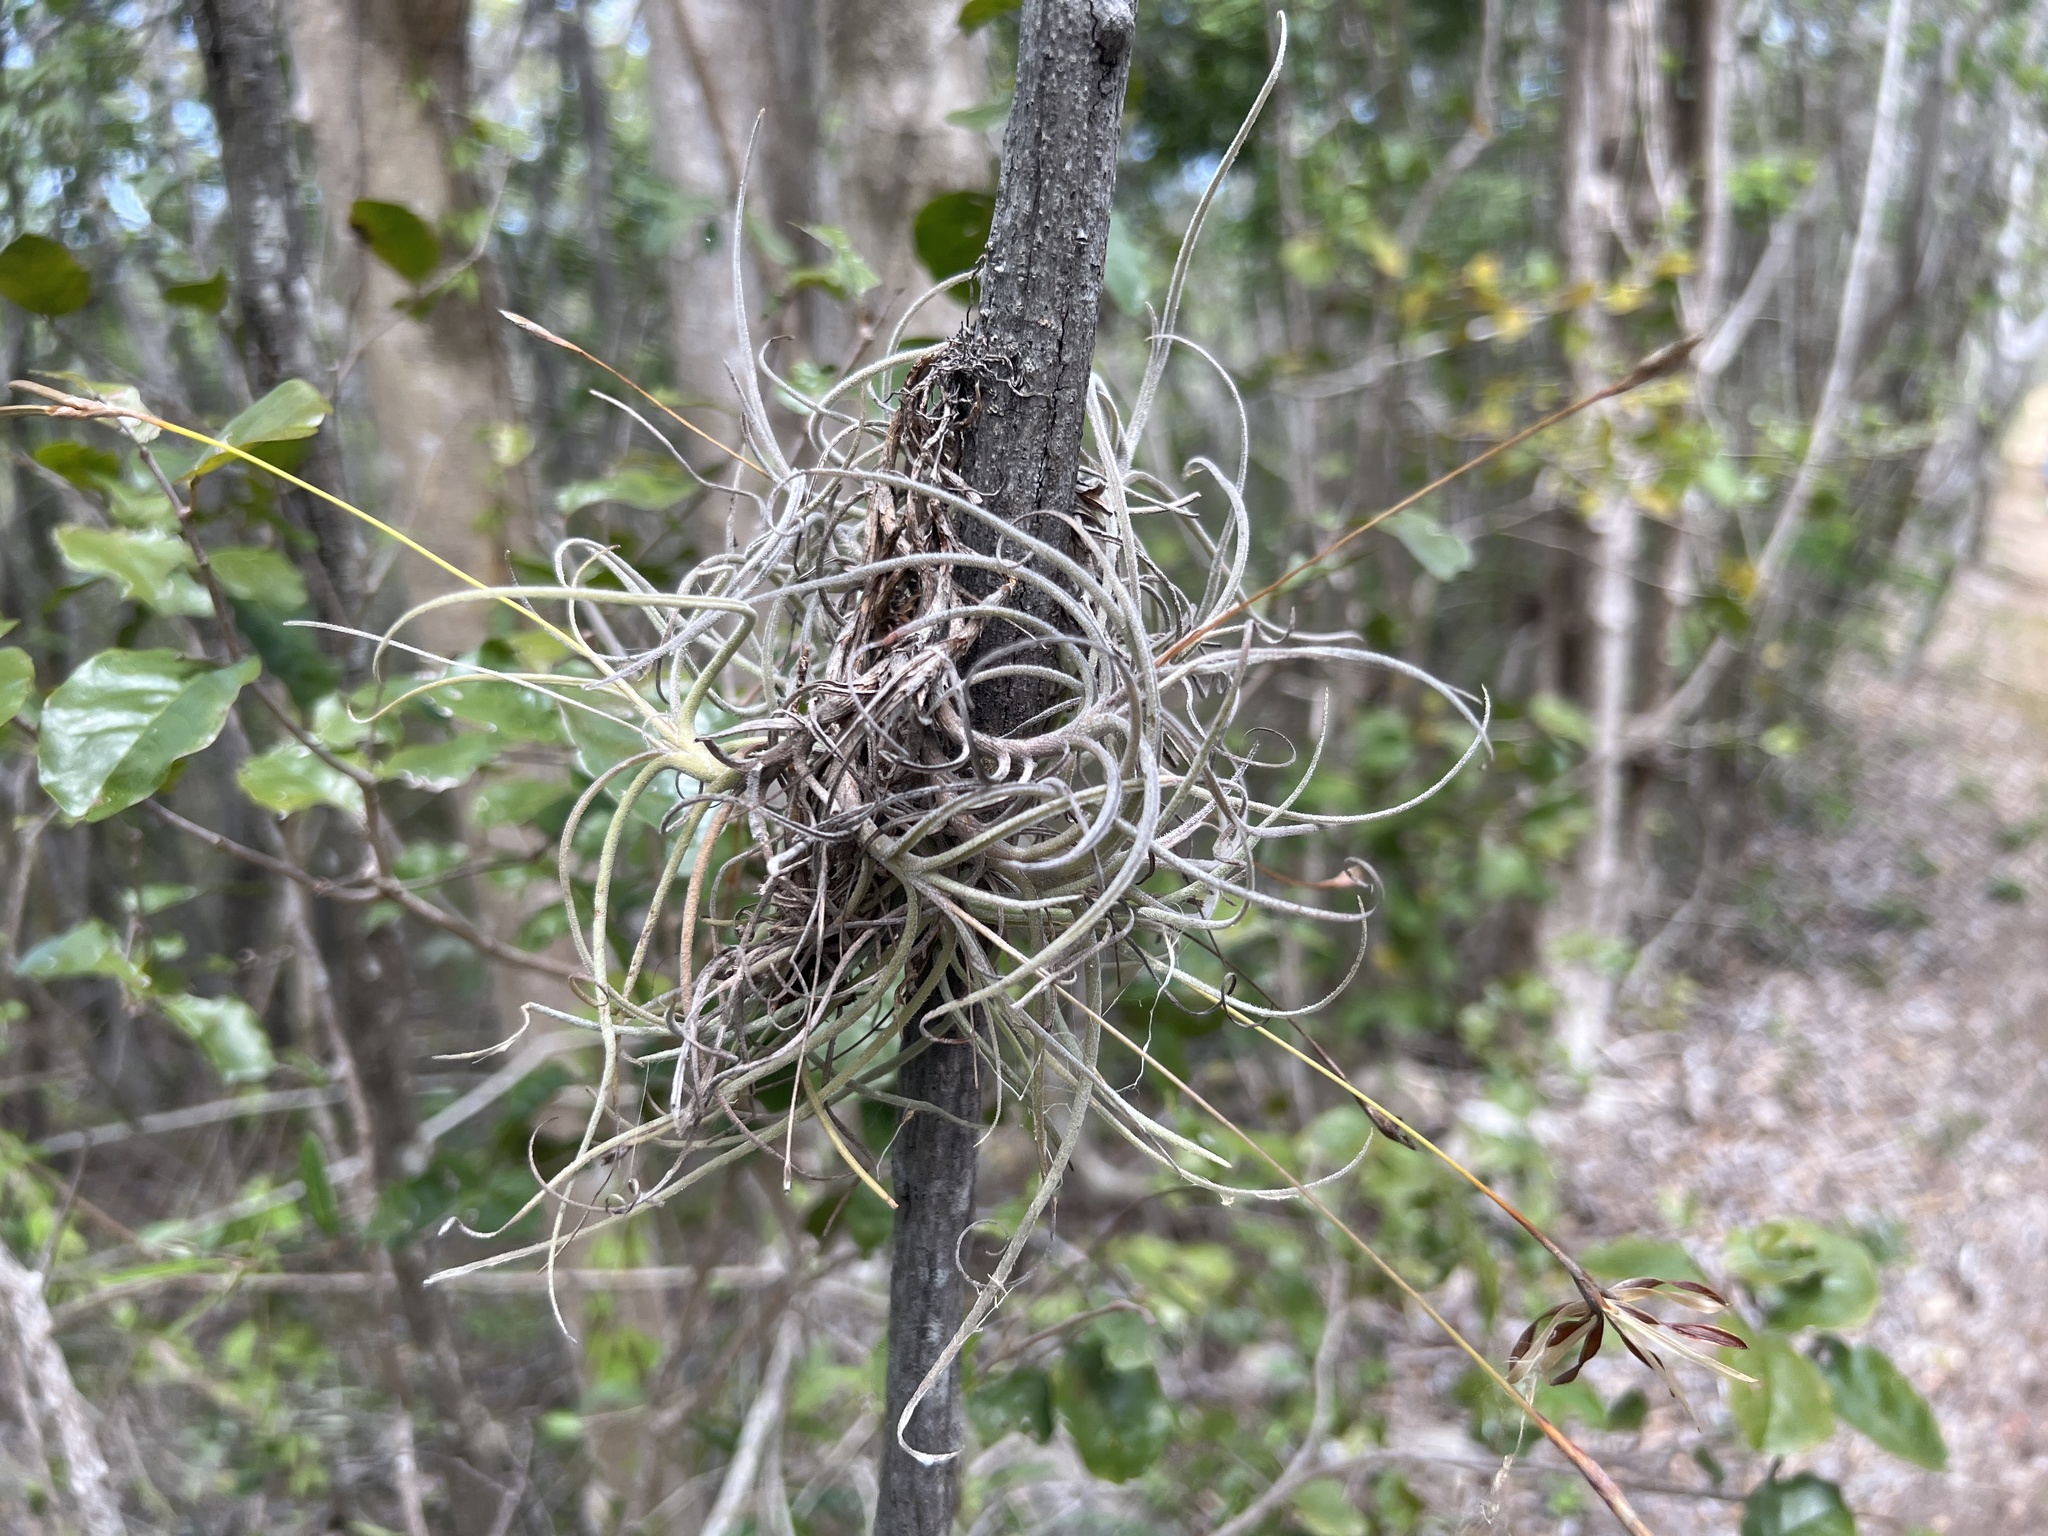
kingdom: Plantae
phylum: Tracheophyta
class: Liliopsida
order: Poales
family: Bromeliaceae
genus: Tillandsia
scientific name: Tillandsia recurvata
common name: Small ballmoss
